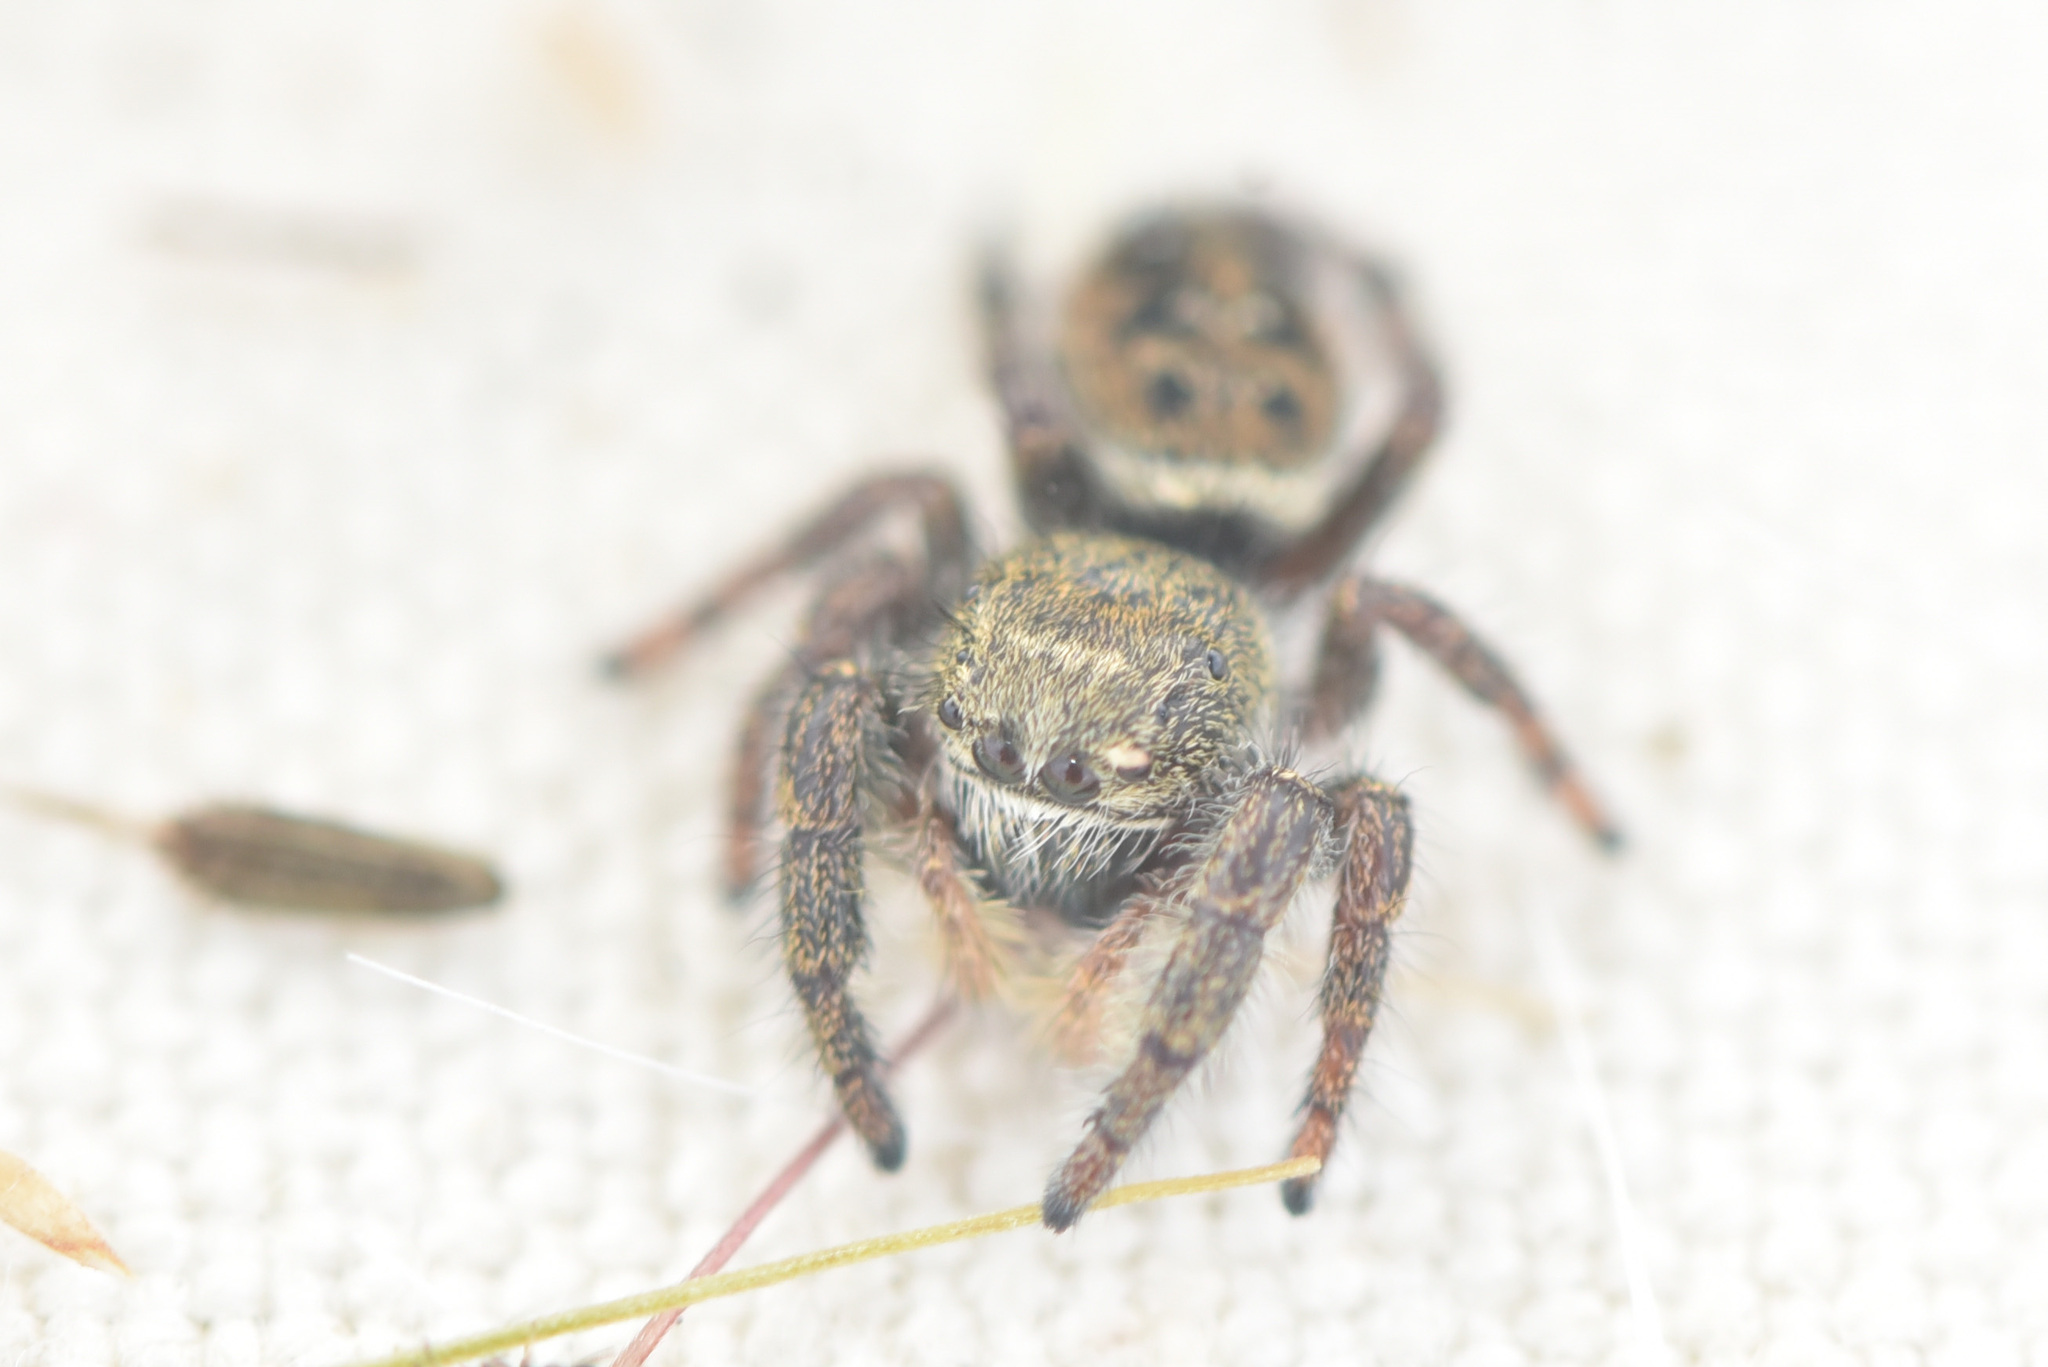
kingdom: Animalia
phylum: Arthropoda
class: Arachnida
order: Araneae
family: Salticidae
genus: Phidippus
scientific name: Phidippus cryptus
